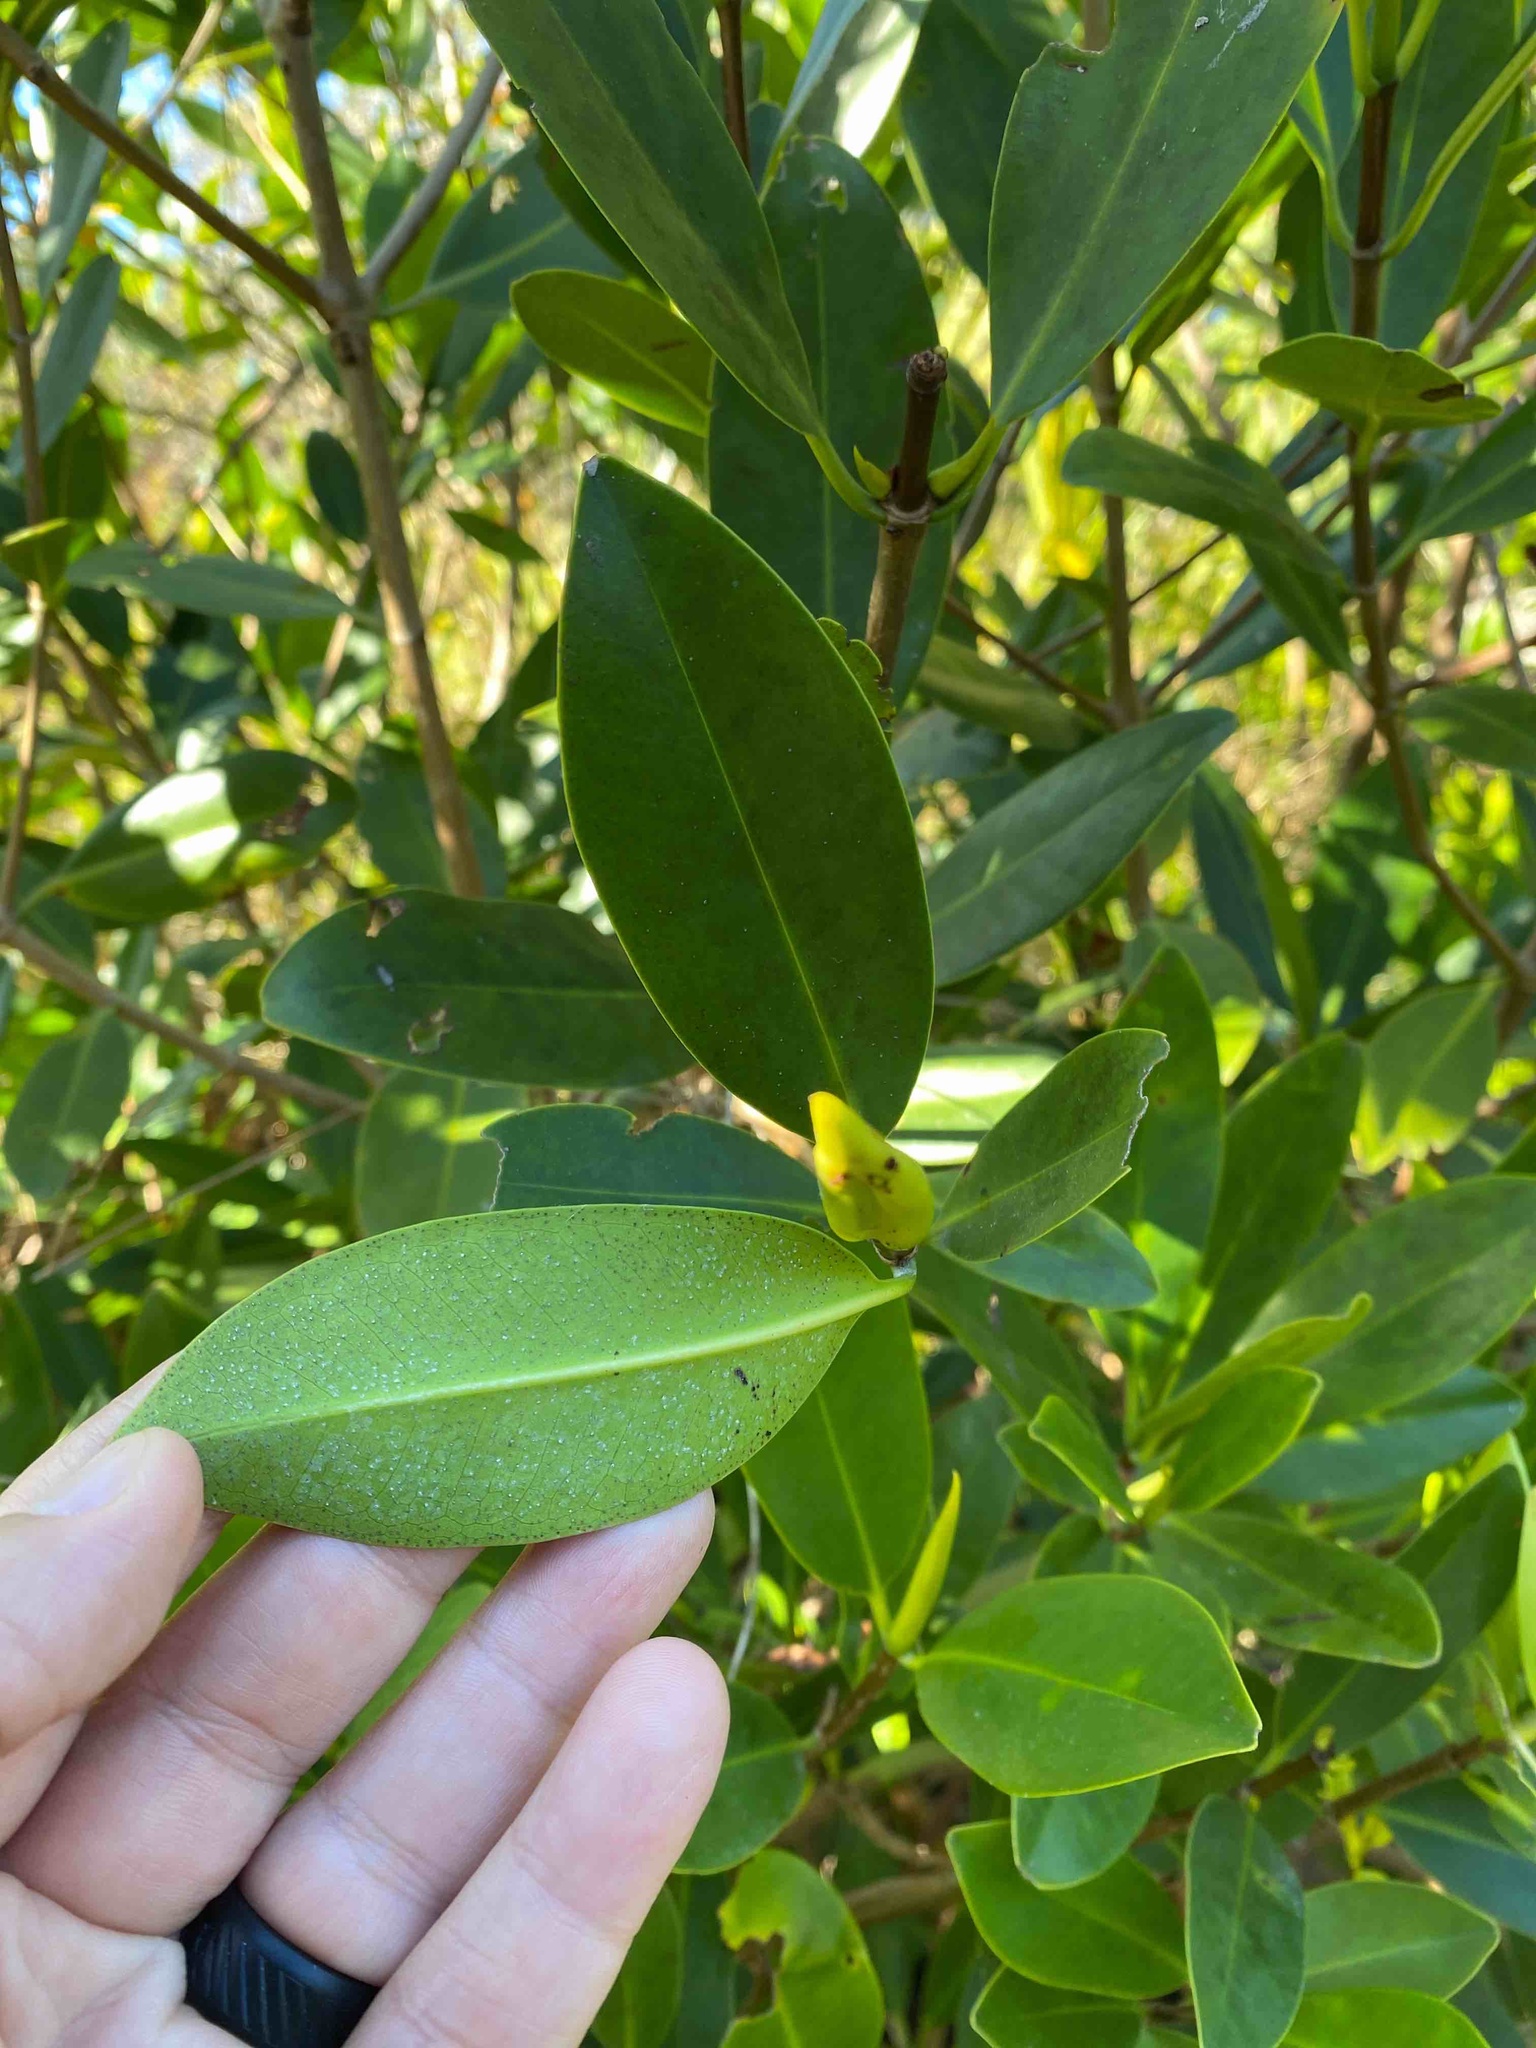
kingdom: Plantae
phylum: Tracheophyta
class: Magnoliopsida
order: Malpighiales
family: Rhizophoraceae
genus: Rhizophora
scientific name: Rhizophora mangle
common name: Red mangrove
